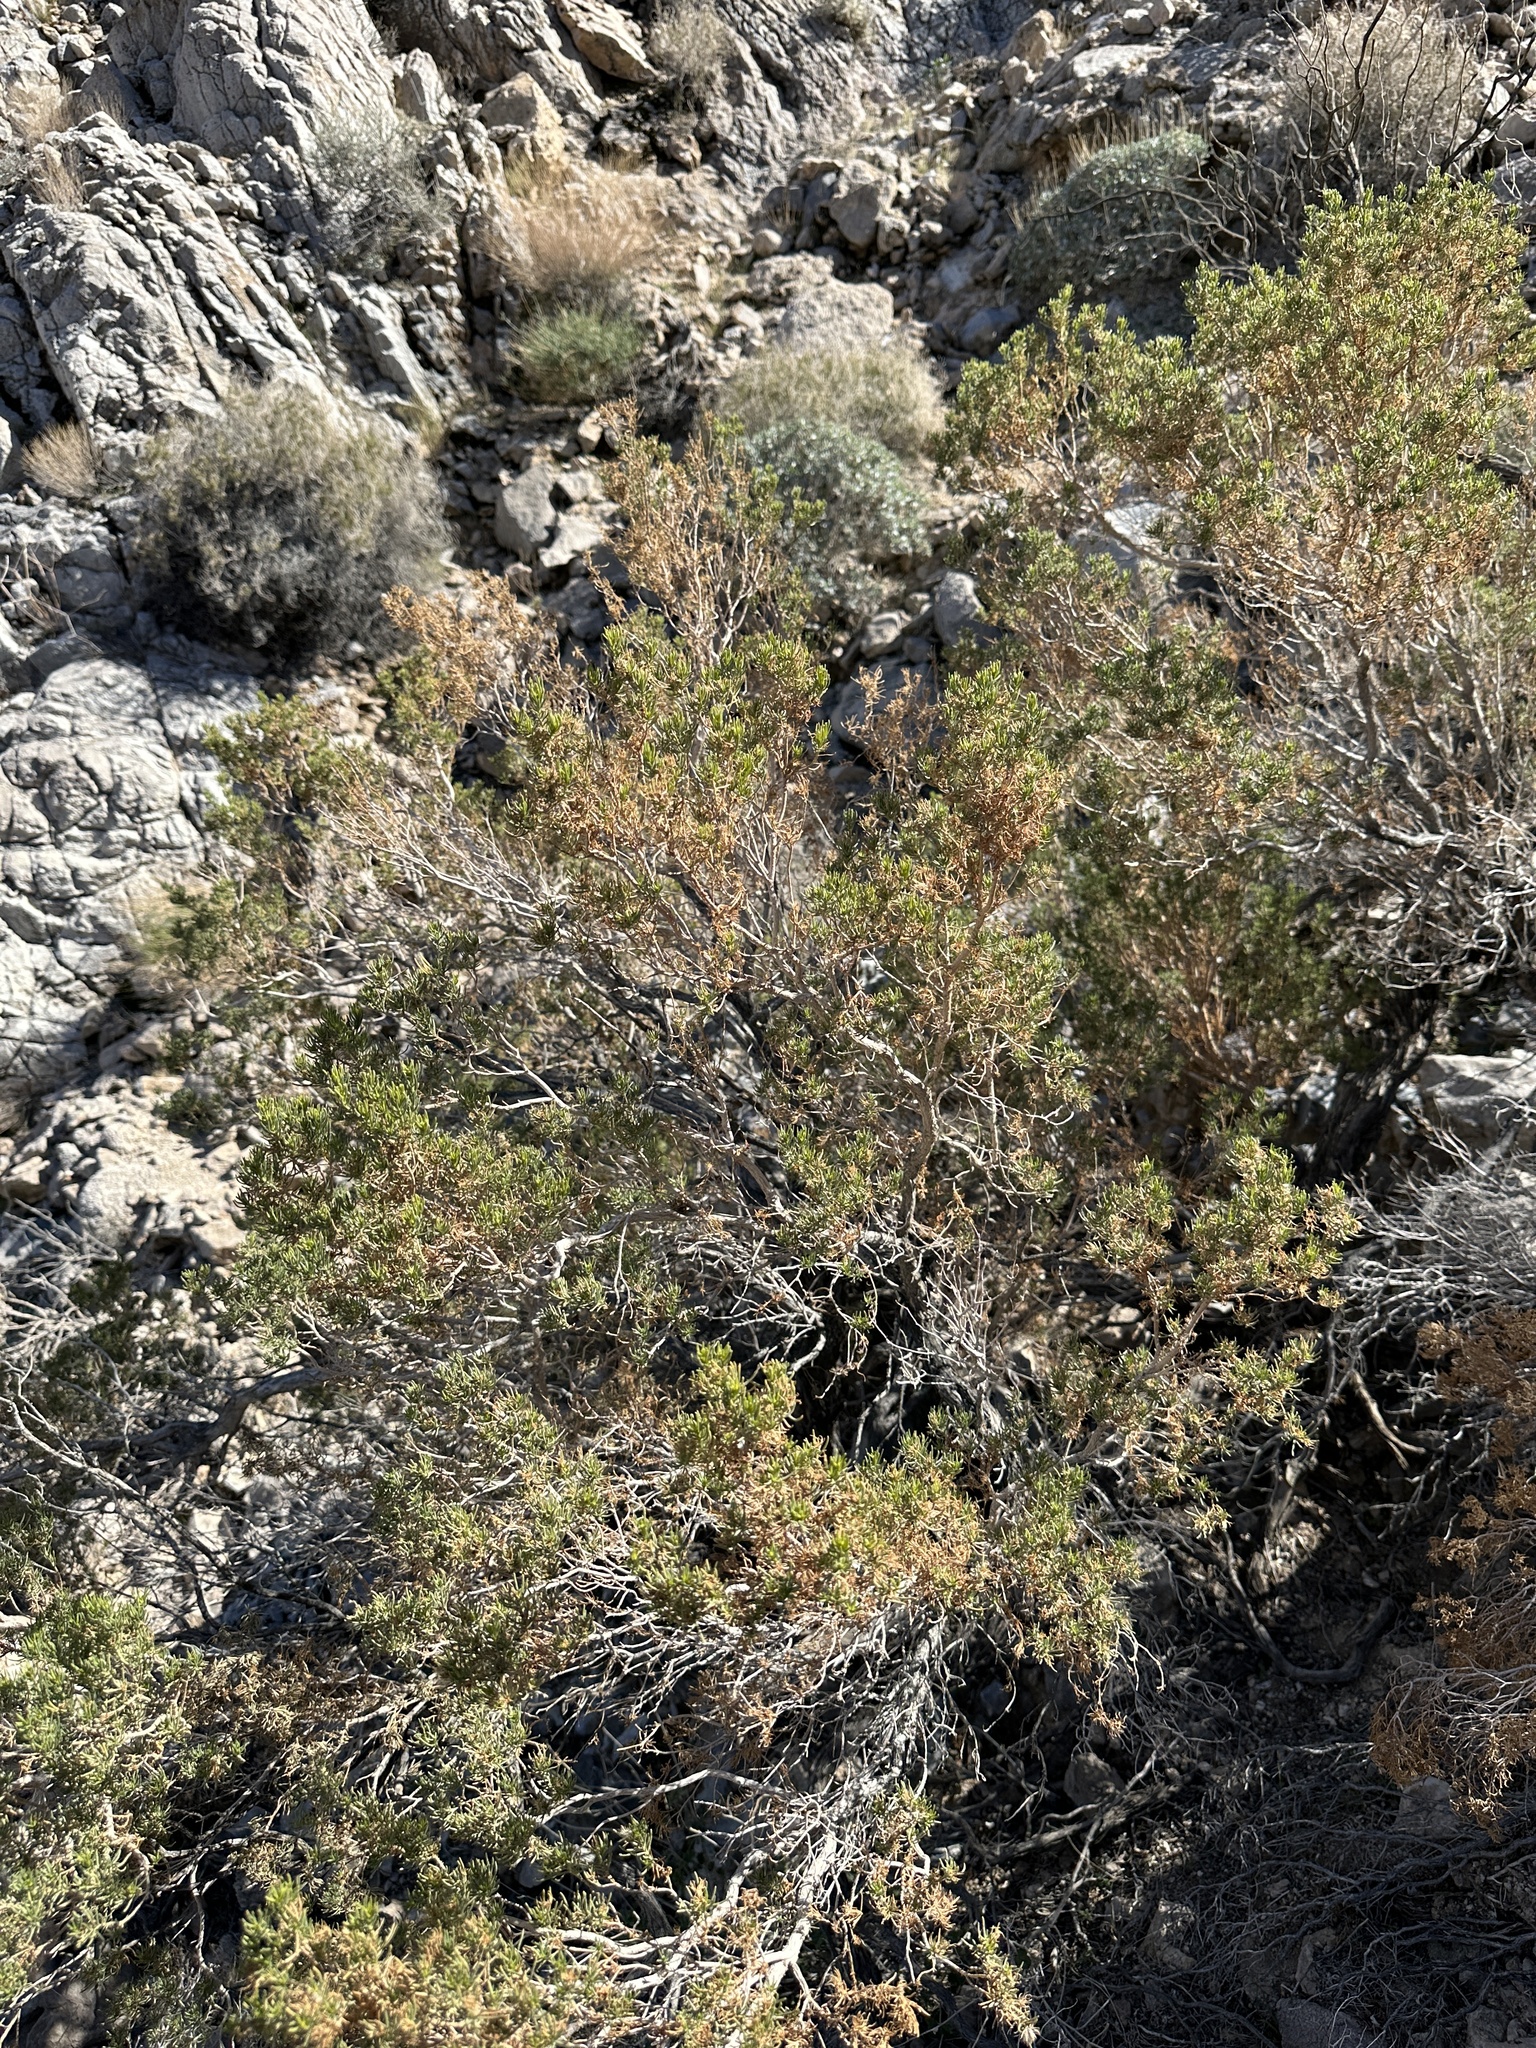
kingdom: Plantae
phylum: Tracheophyta
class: Magnoliopsida
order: Asterales
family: Asteraceae
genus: Peucephyllum
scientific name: Peucephyllum schottii
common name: Pygmy-cedar
